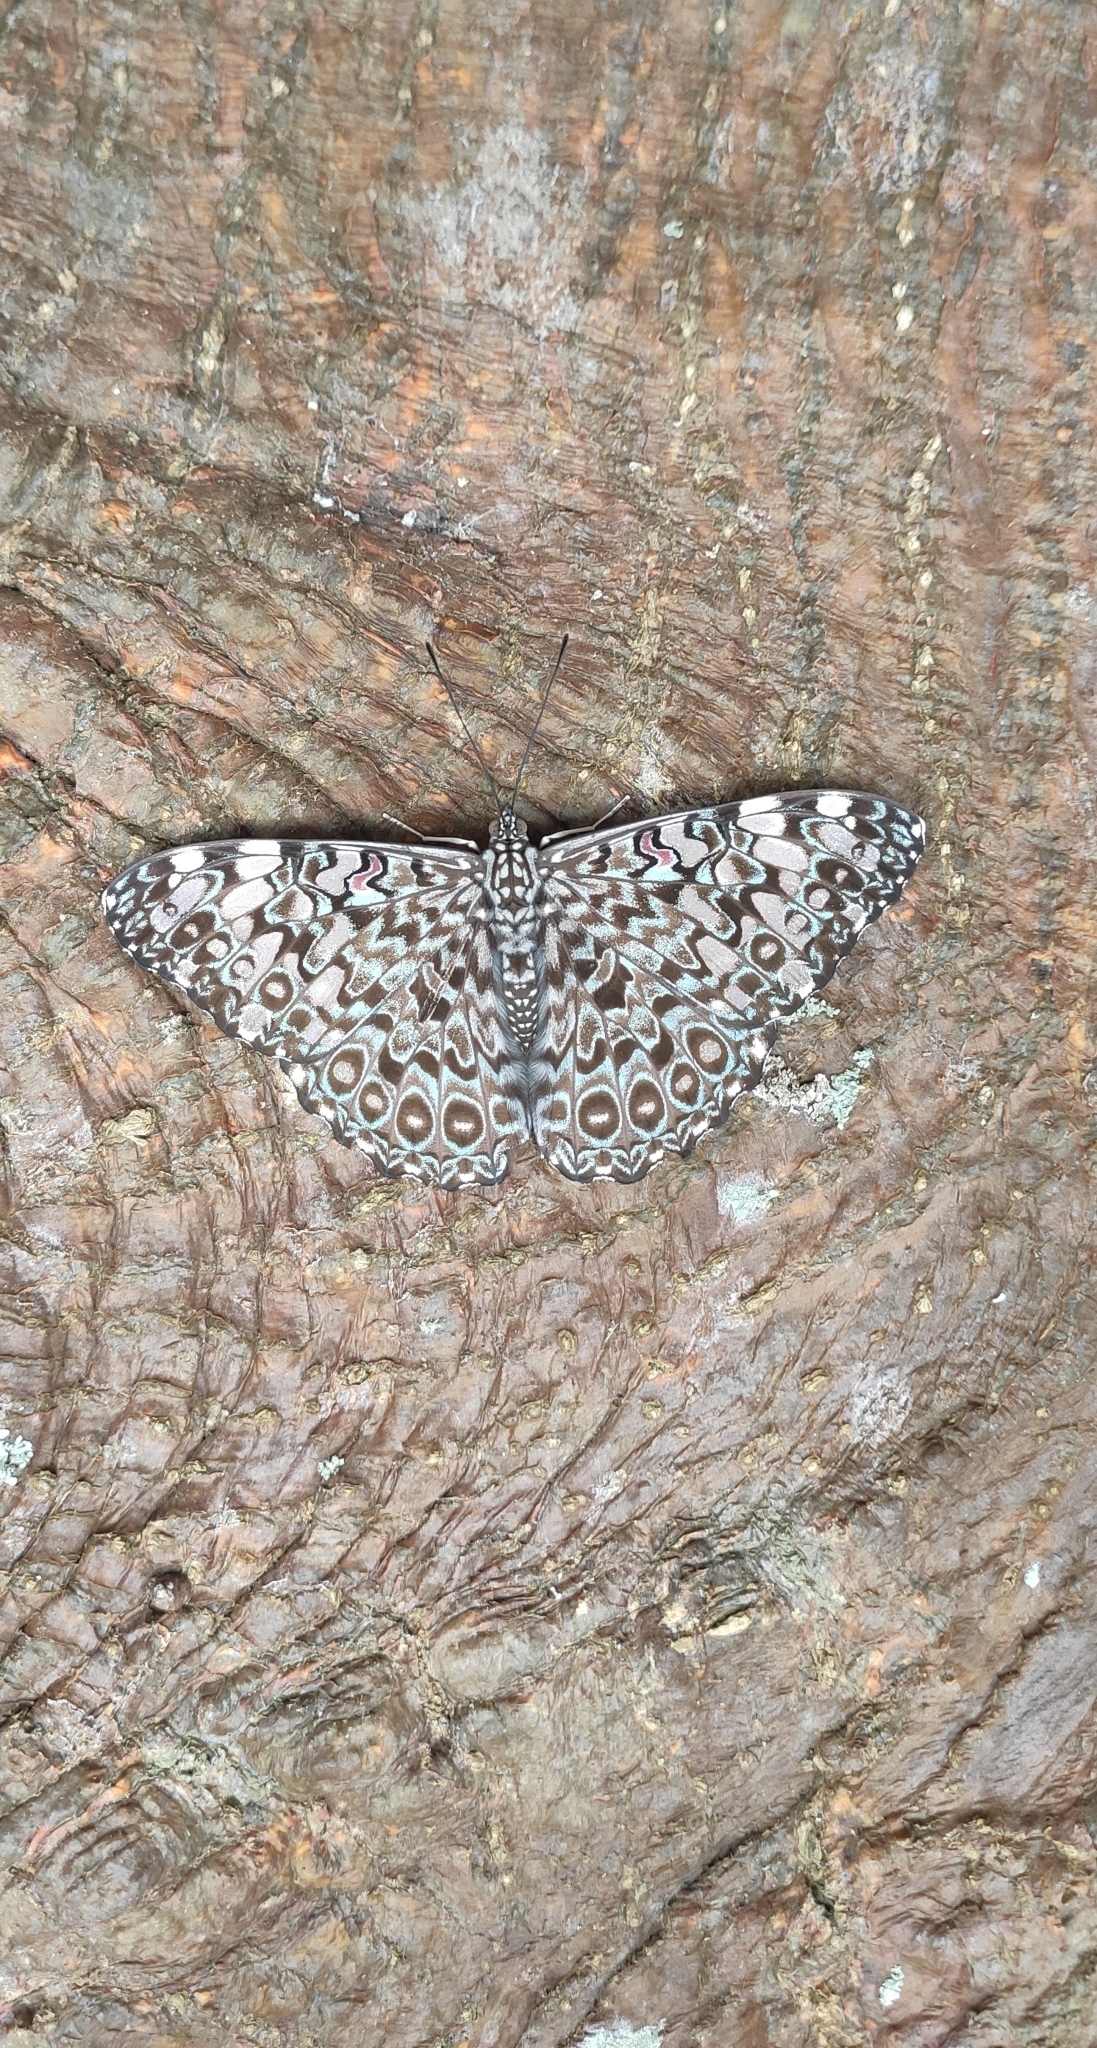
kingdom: Animalia
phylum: Arthropoda
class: Insecta
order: Lepidoptera
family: Nymphalidae
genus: Hamadryas
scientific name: Hamadryas feronia
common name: Variable cracker
